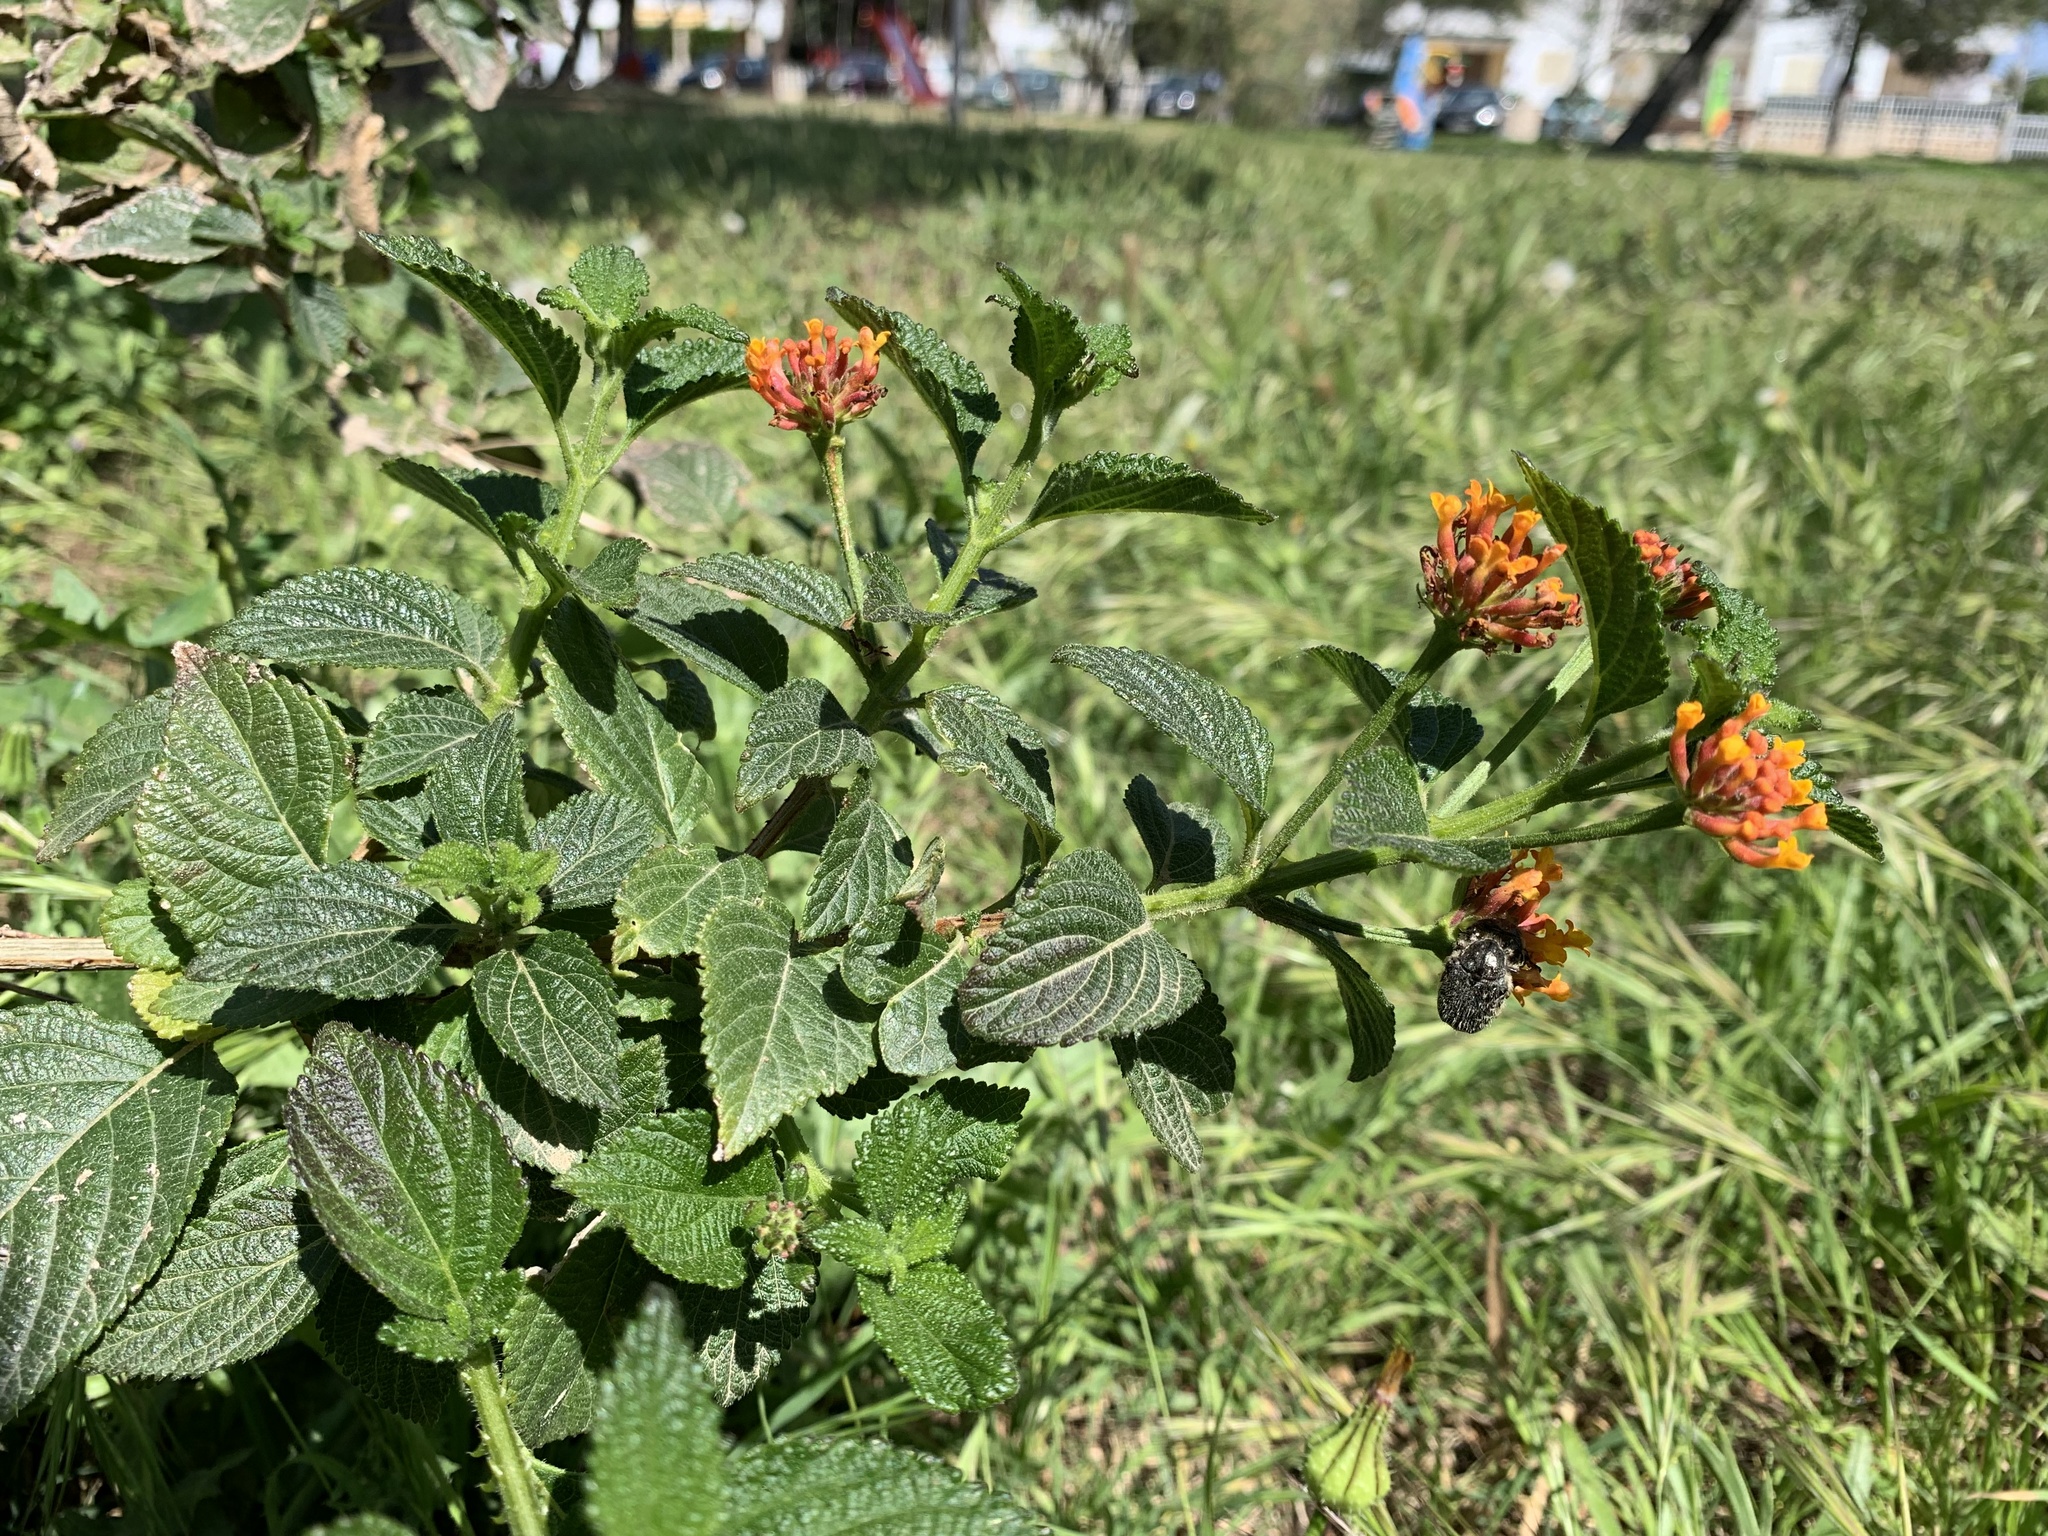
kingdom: Plantae
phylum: Tracheophyta
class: Magnoliopsida
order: Lamiales
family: Verbenaceae
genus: Lantana
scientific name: Lantana camara
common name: Lantana
